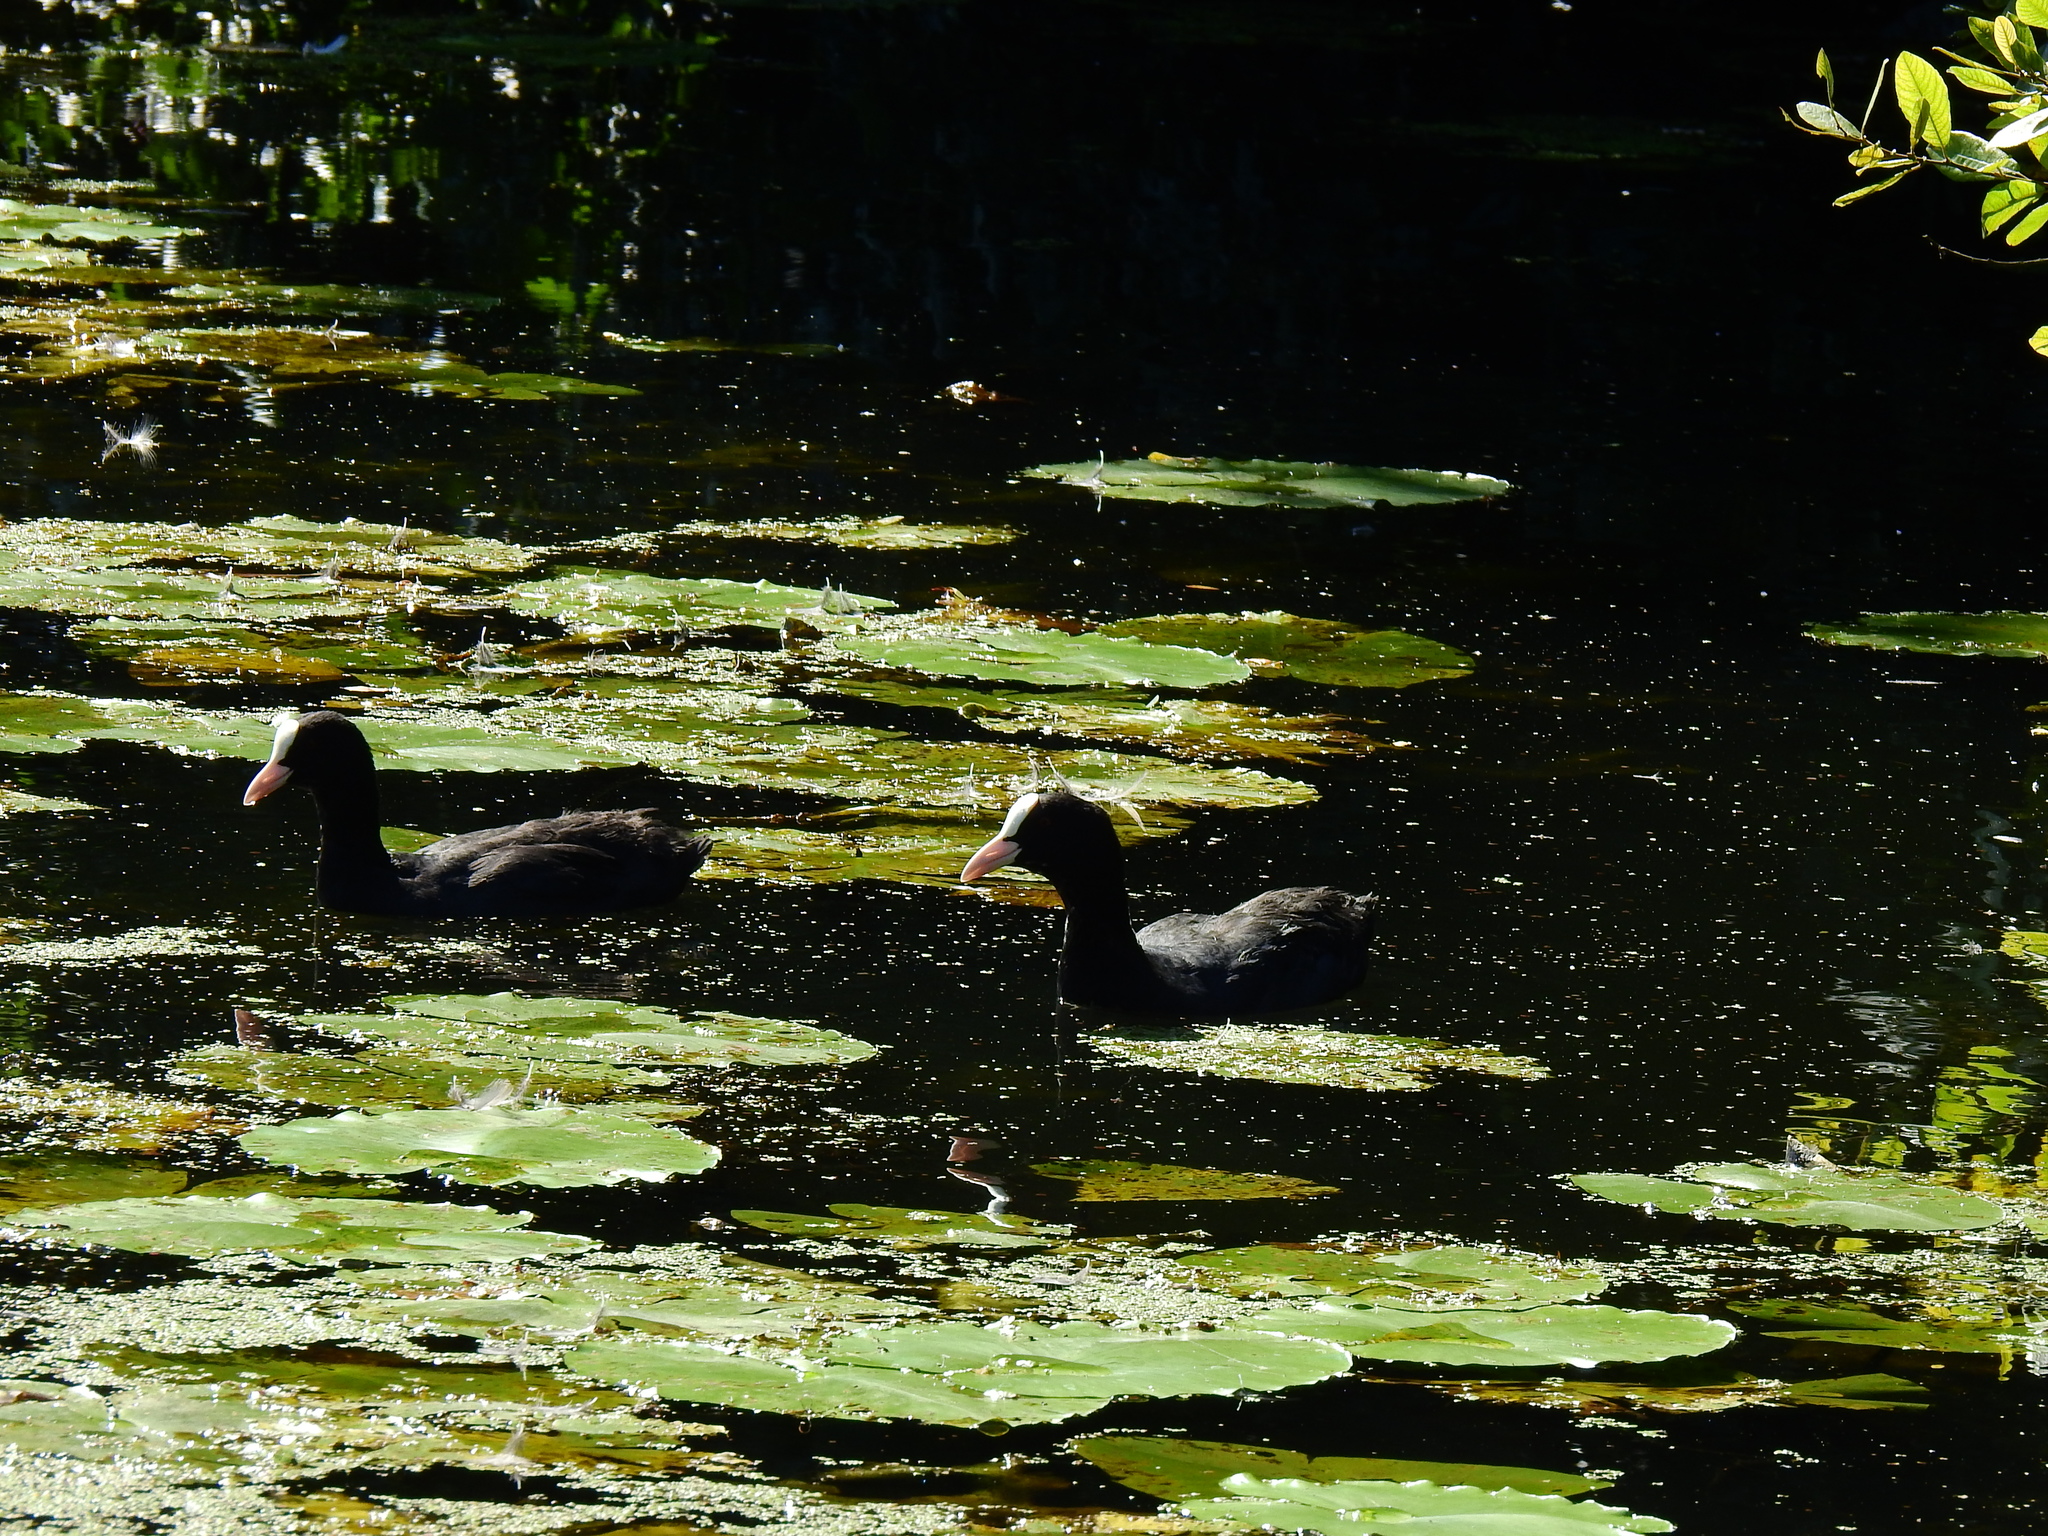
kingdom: Animalia
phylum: Chordata
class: Aves
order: Gruiformes
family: Rallidae
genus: Fulica
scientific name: Fulica atra
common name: Eurasian coot
